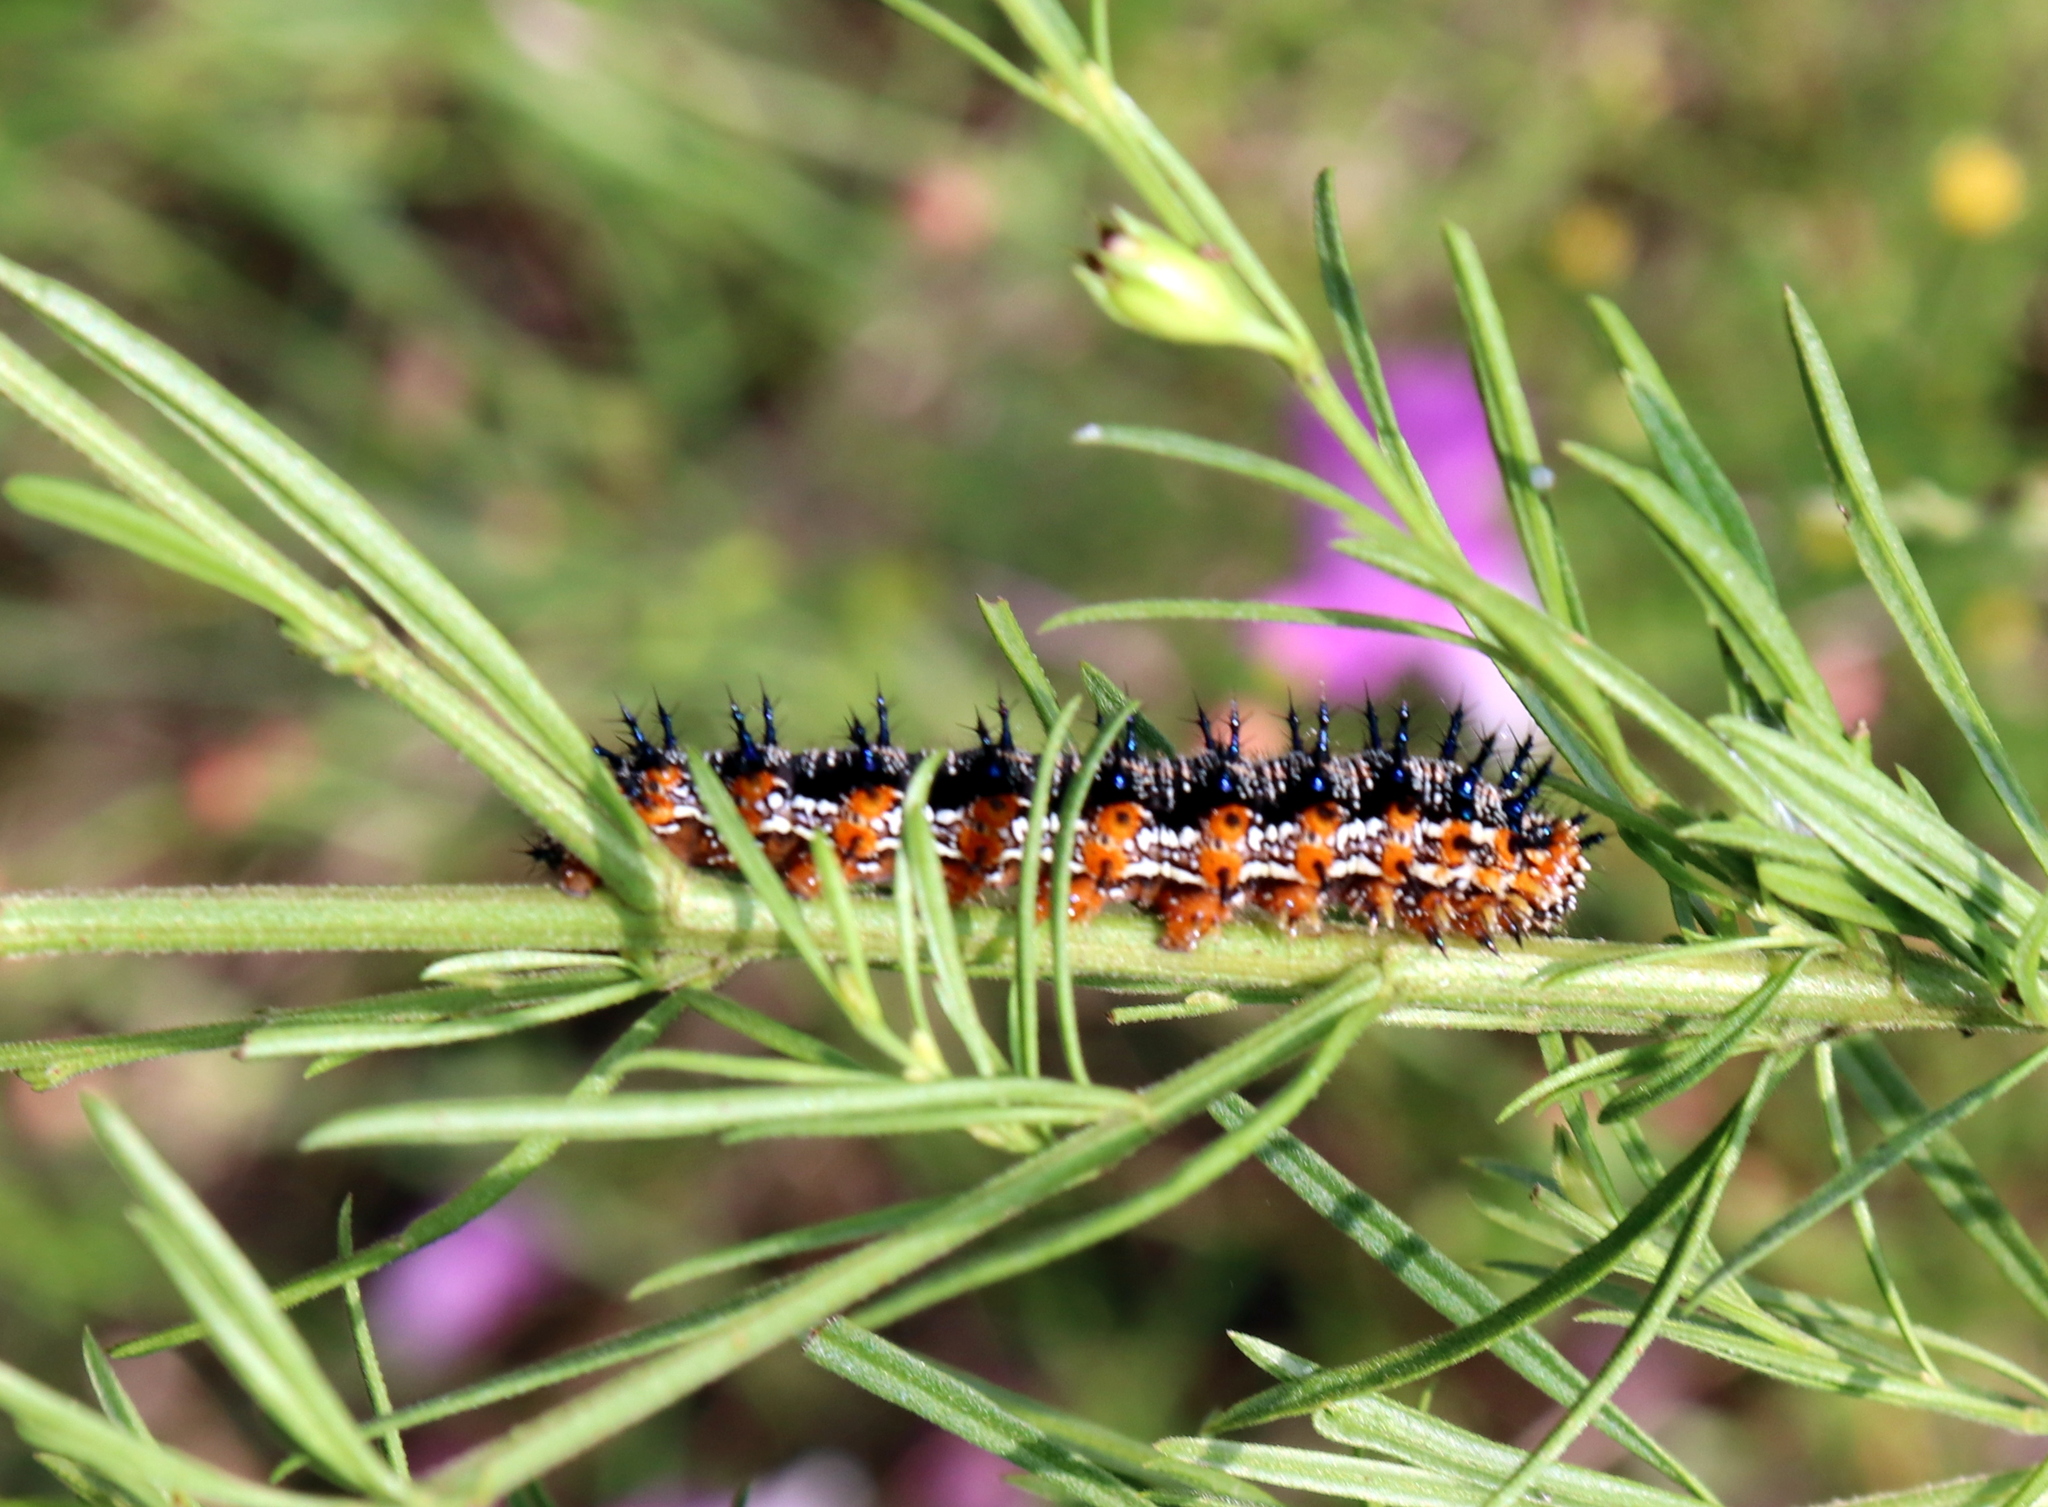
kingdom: Animalia
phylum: Arthropoda
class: Insecta
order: Lepidoptera
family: Nymphalidae
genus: Junonia
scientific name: Junonia coenia
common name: Common buckeye
